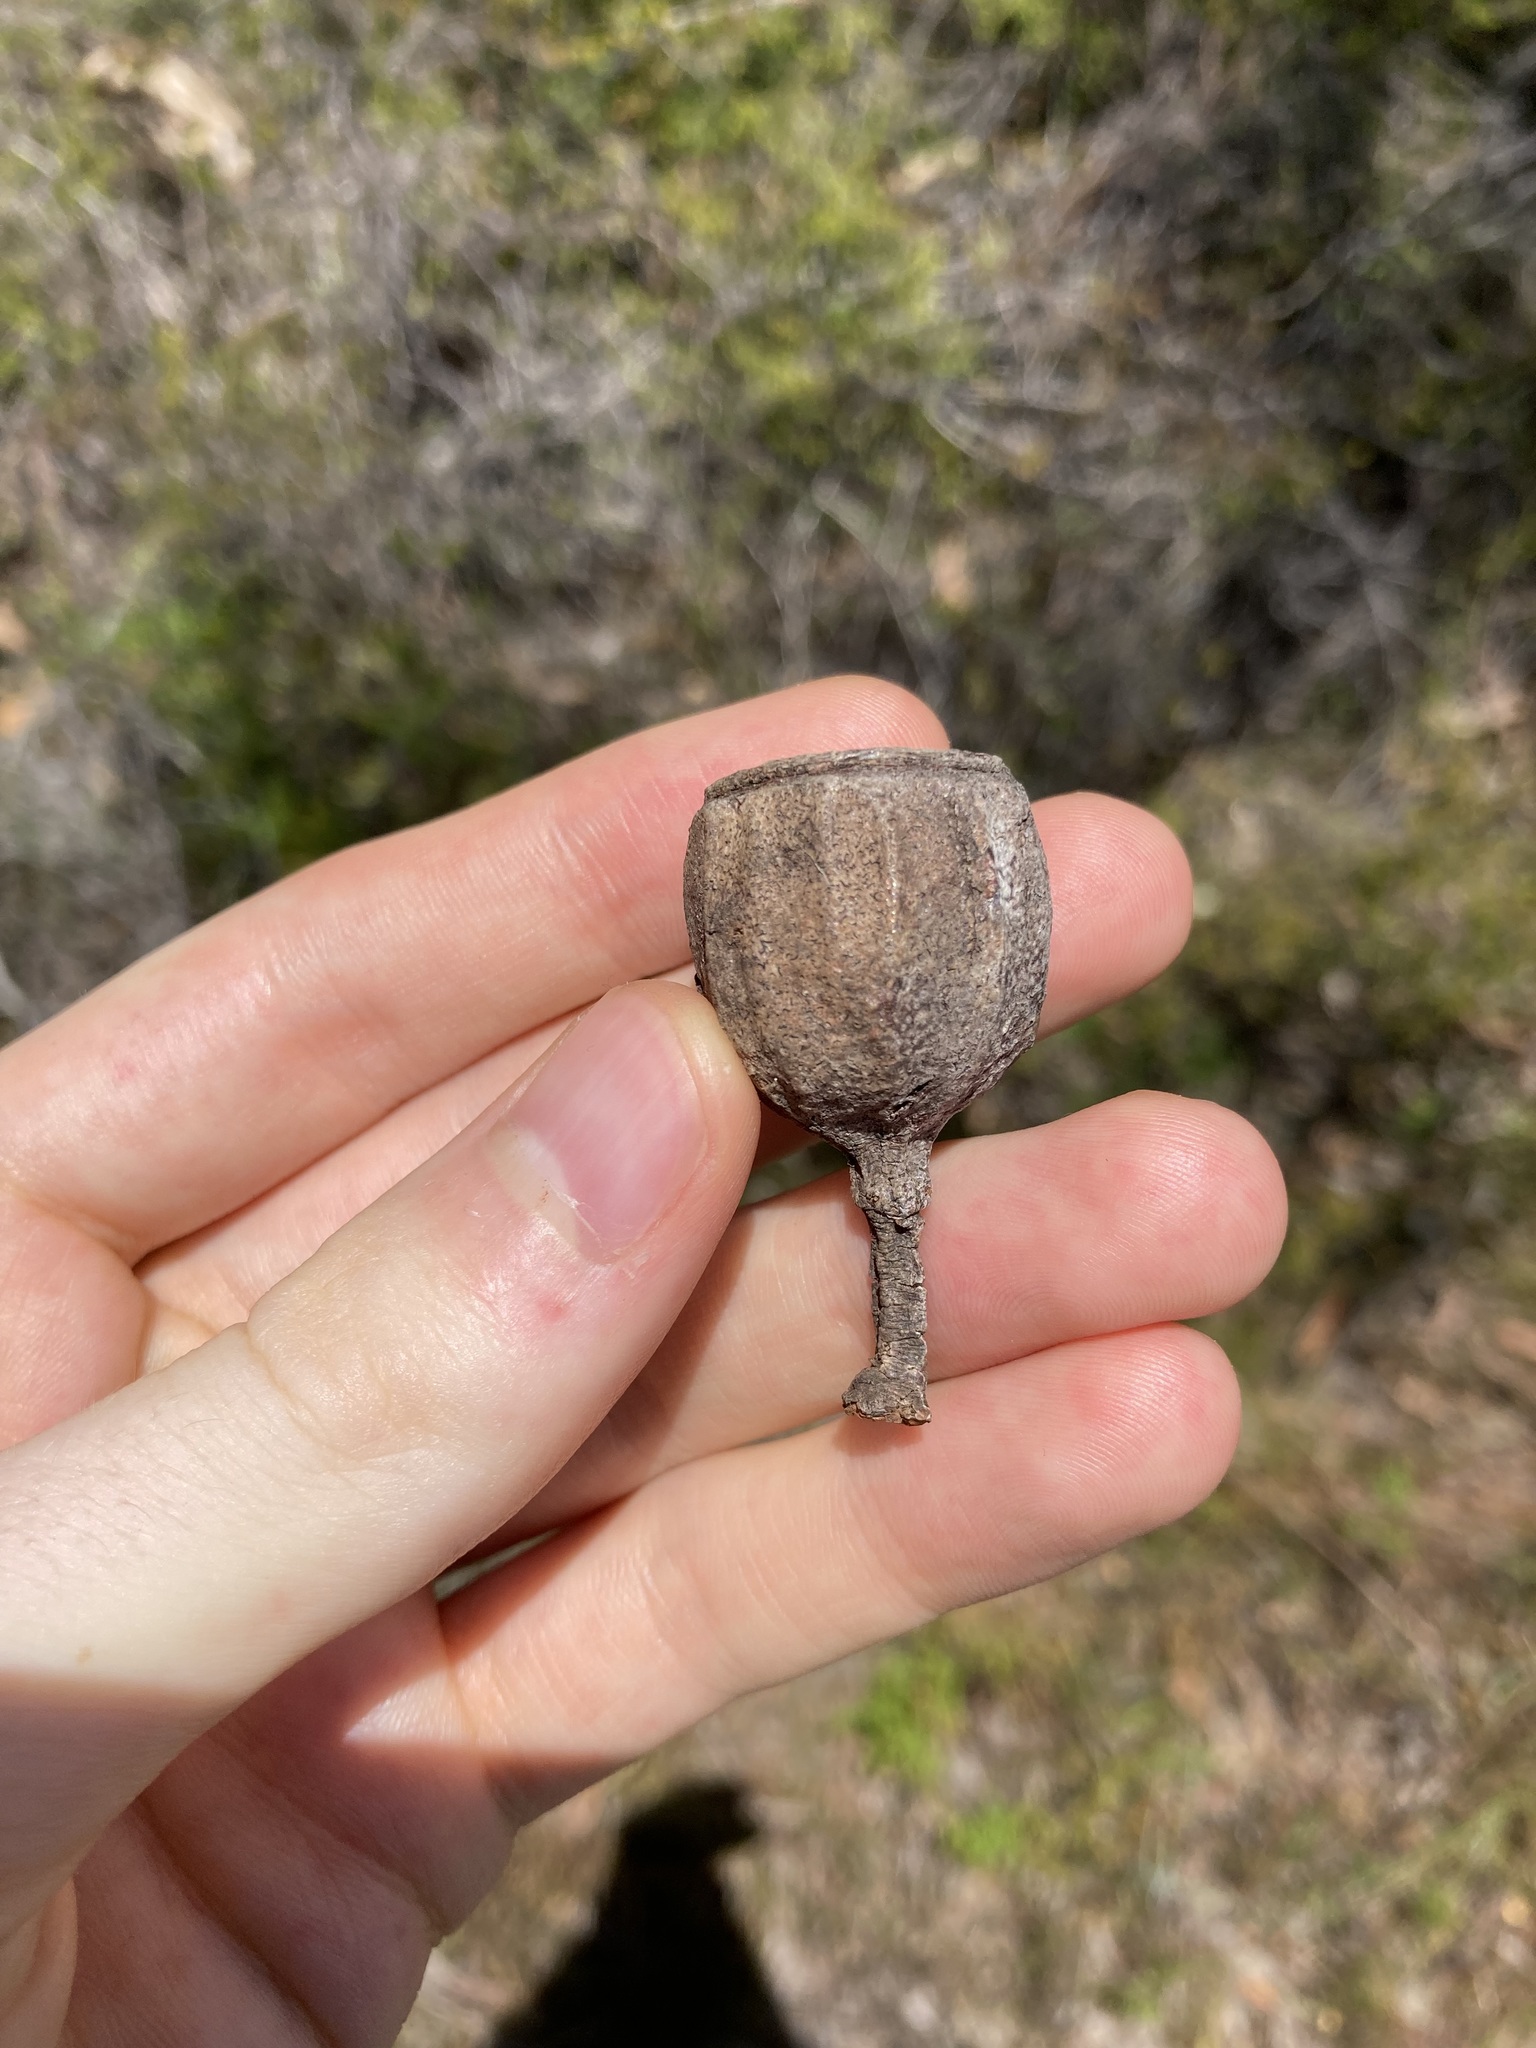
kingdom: Plantae
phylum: Tracheophyta
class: Magnoliopsida
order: Myrtales
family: Myrtaceae
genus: Eucalyptus
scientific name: Eucalyptus planchoniana
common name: Bastard-tallow-wood
